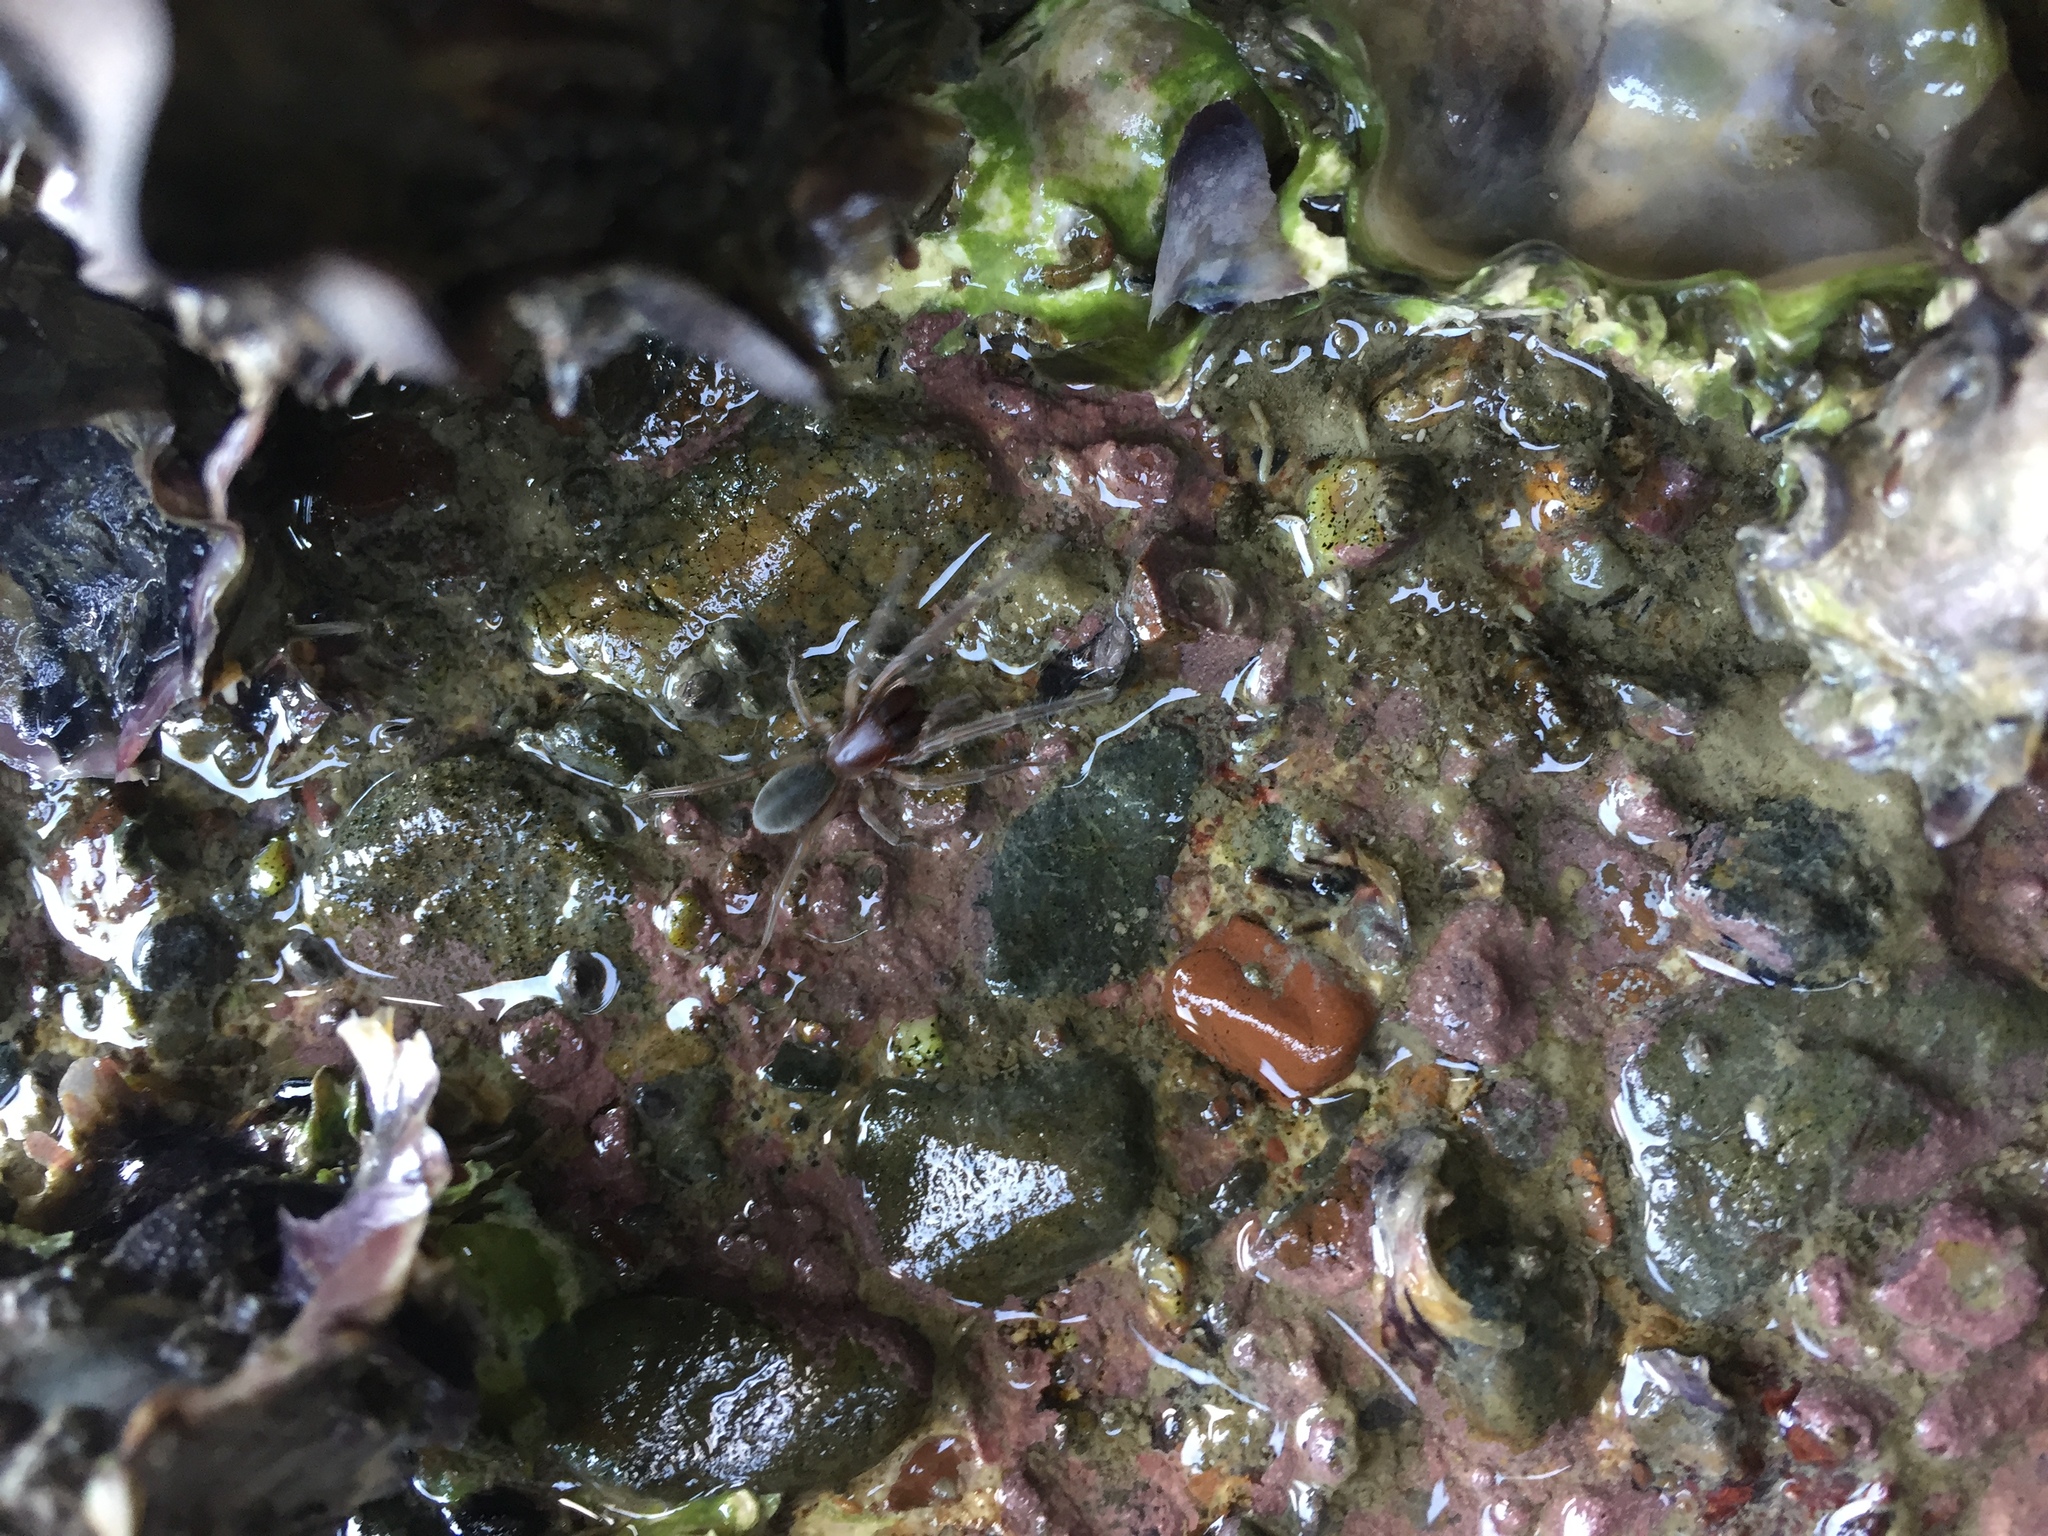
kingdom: Animalia
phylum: Arthropoda
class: Arachnida
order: Araneae
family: Desidae
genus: Desis
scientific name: Desis marina
